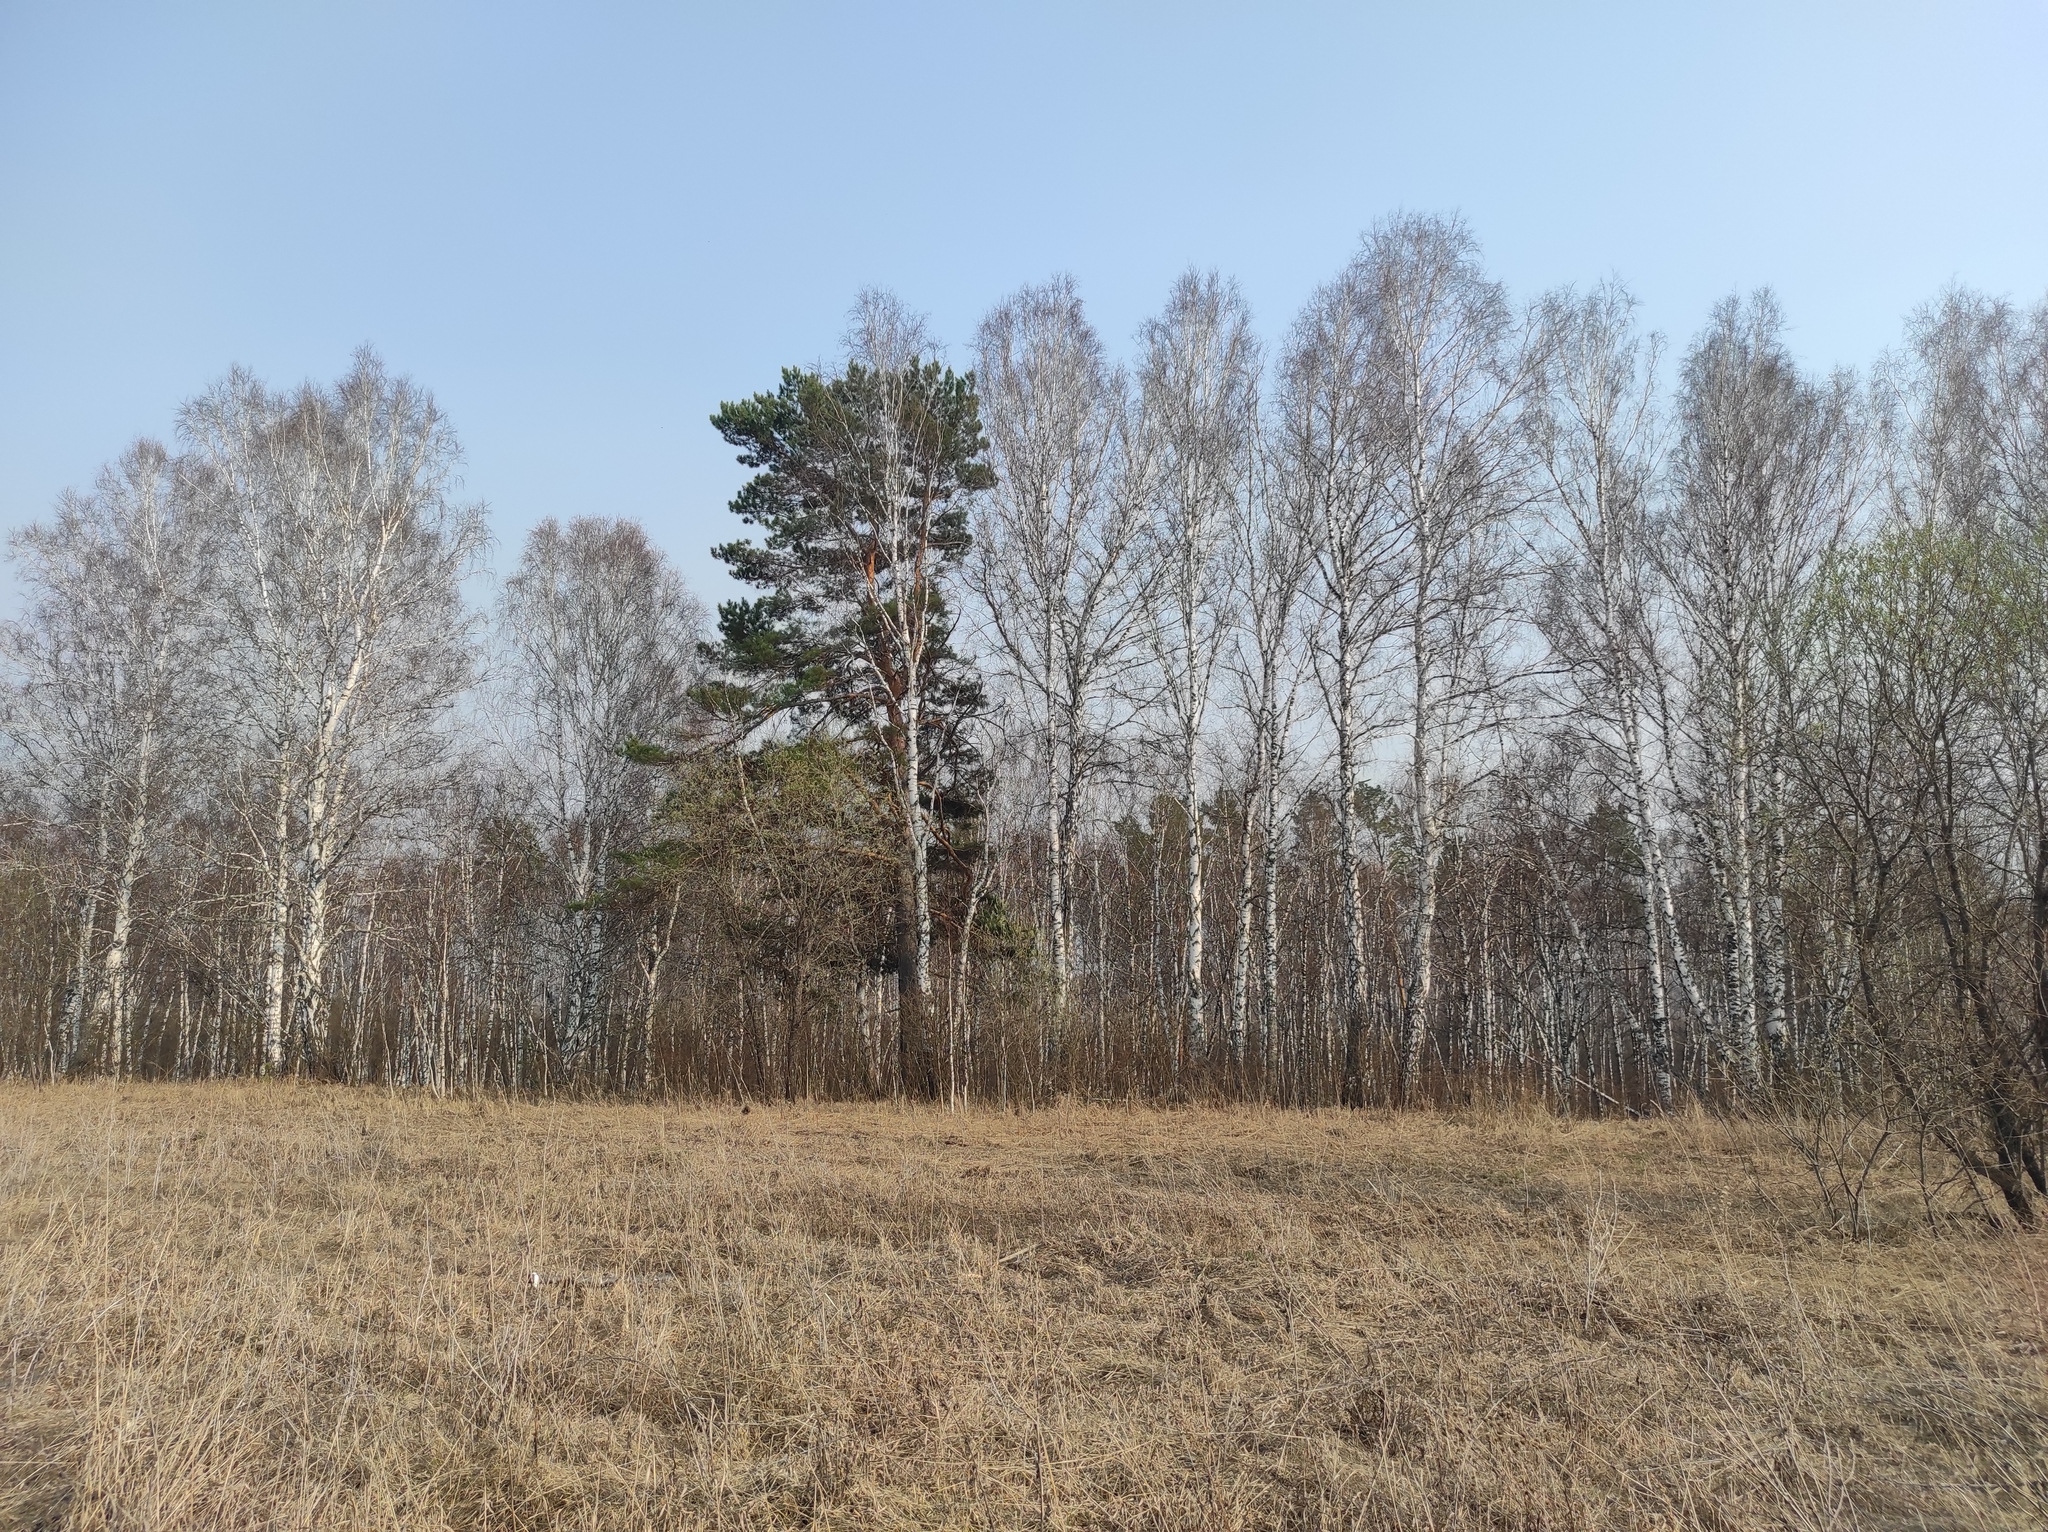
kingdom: Plantae
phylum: Tracheophyta
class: Pinopsida
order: Pinales
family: Pinaceae
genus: Pinus
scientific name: Pinus sylvestris
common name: Scots pine
